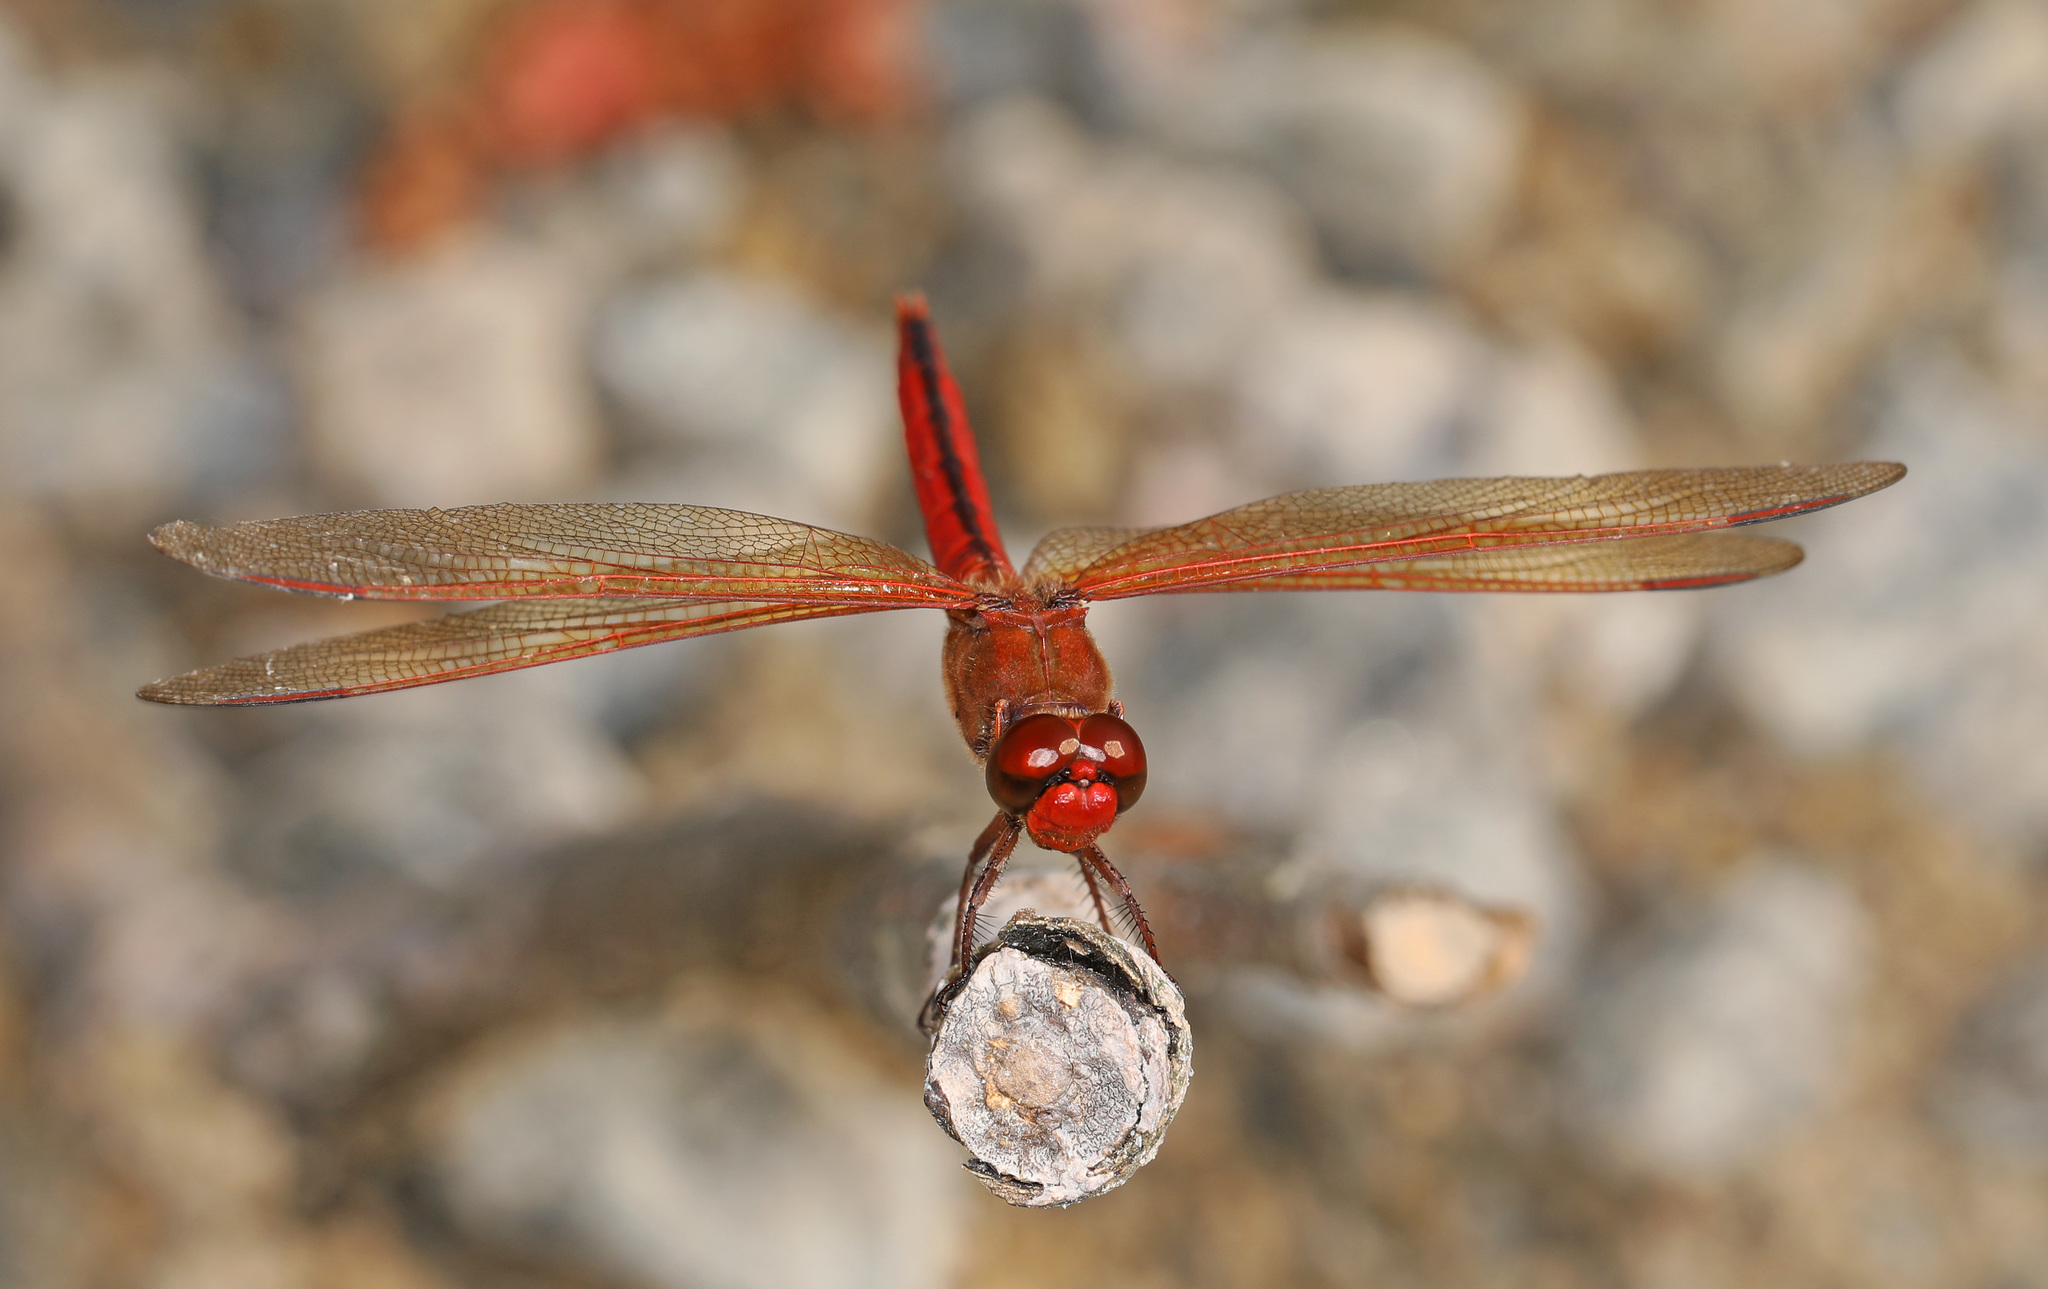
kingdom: Animalia
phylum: Arthropoda
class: Insecta
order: Odonata
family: Libellulidae
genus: Libellula
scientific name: Libellula needhami
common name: Needham's skimmer
